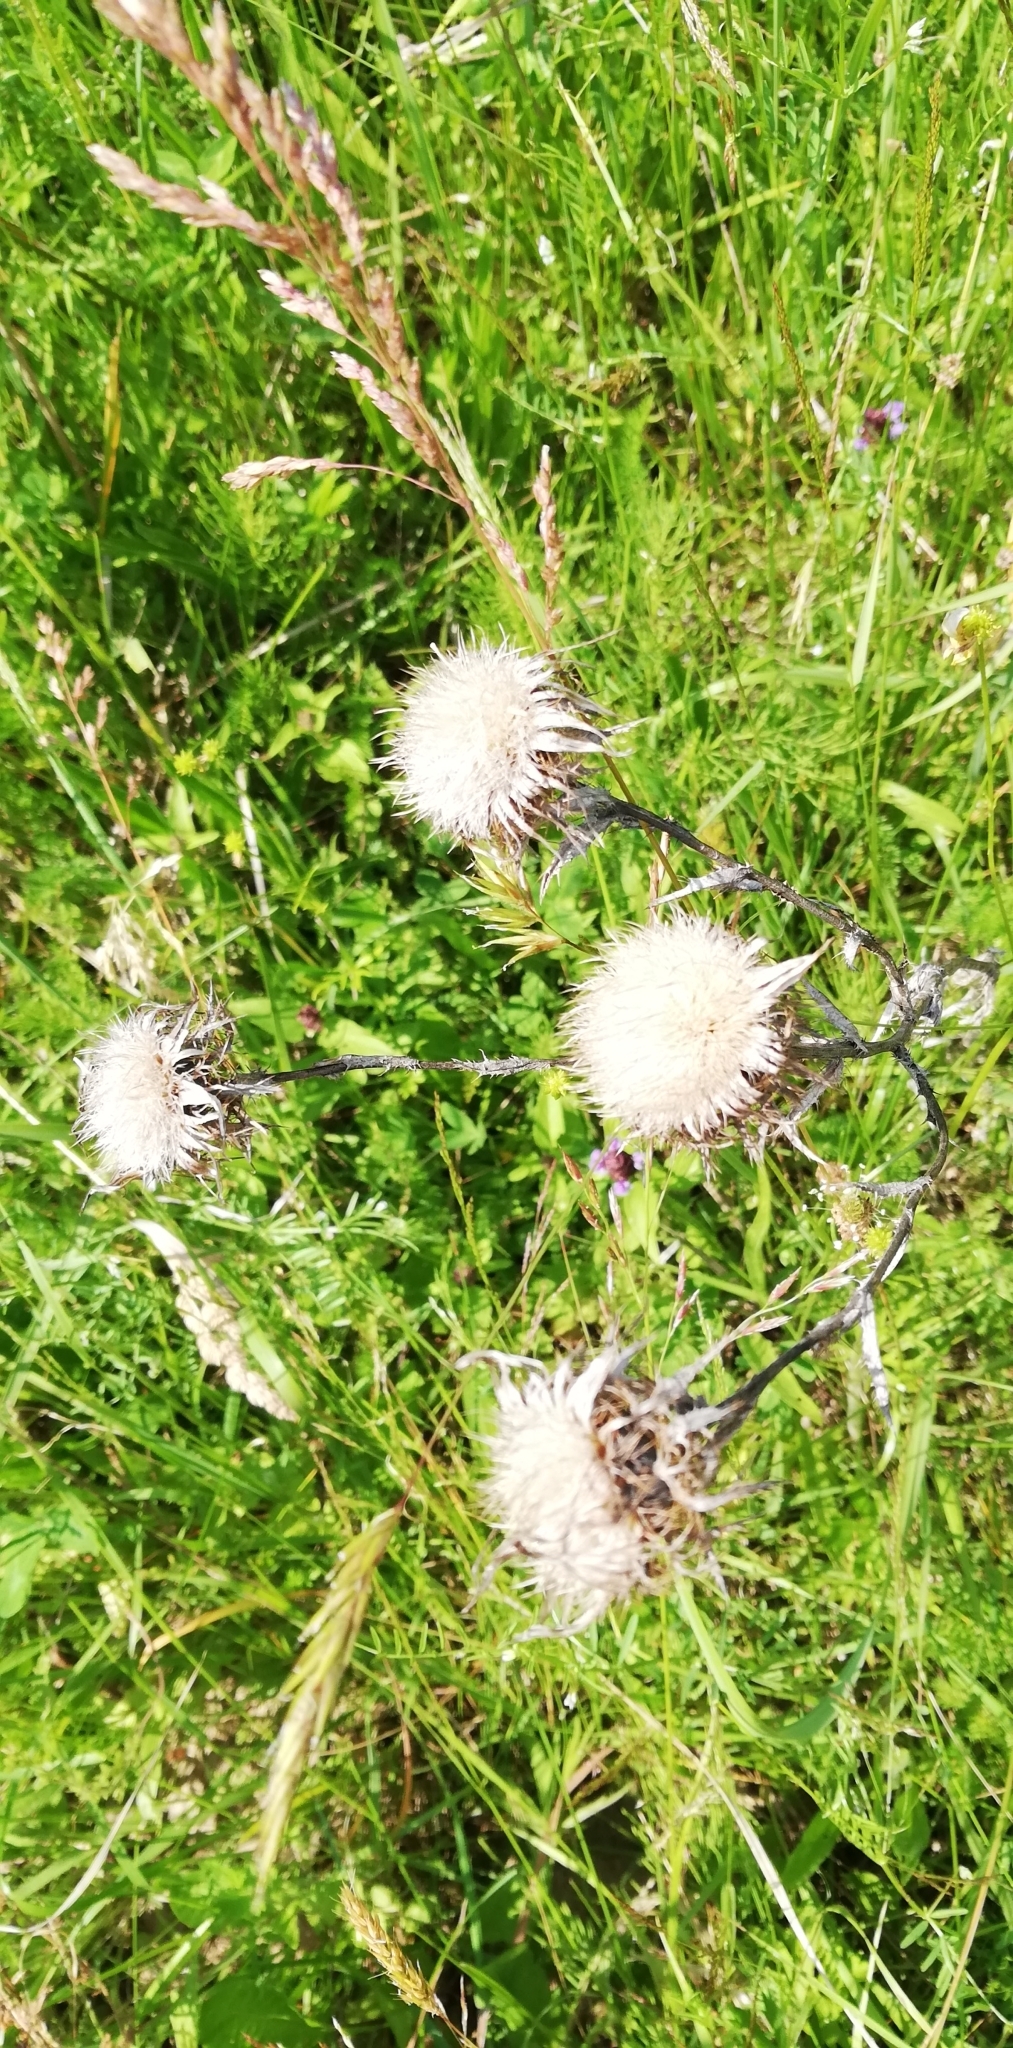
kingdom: Plantae
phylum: Tracheophyta
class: Magnoliopsida
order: Asterales
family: Asteraceae
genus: Carlina
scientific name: Carlina biebersteinii
